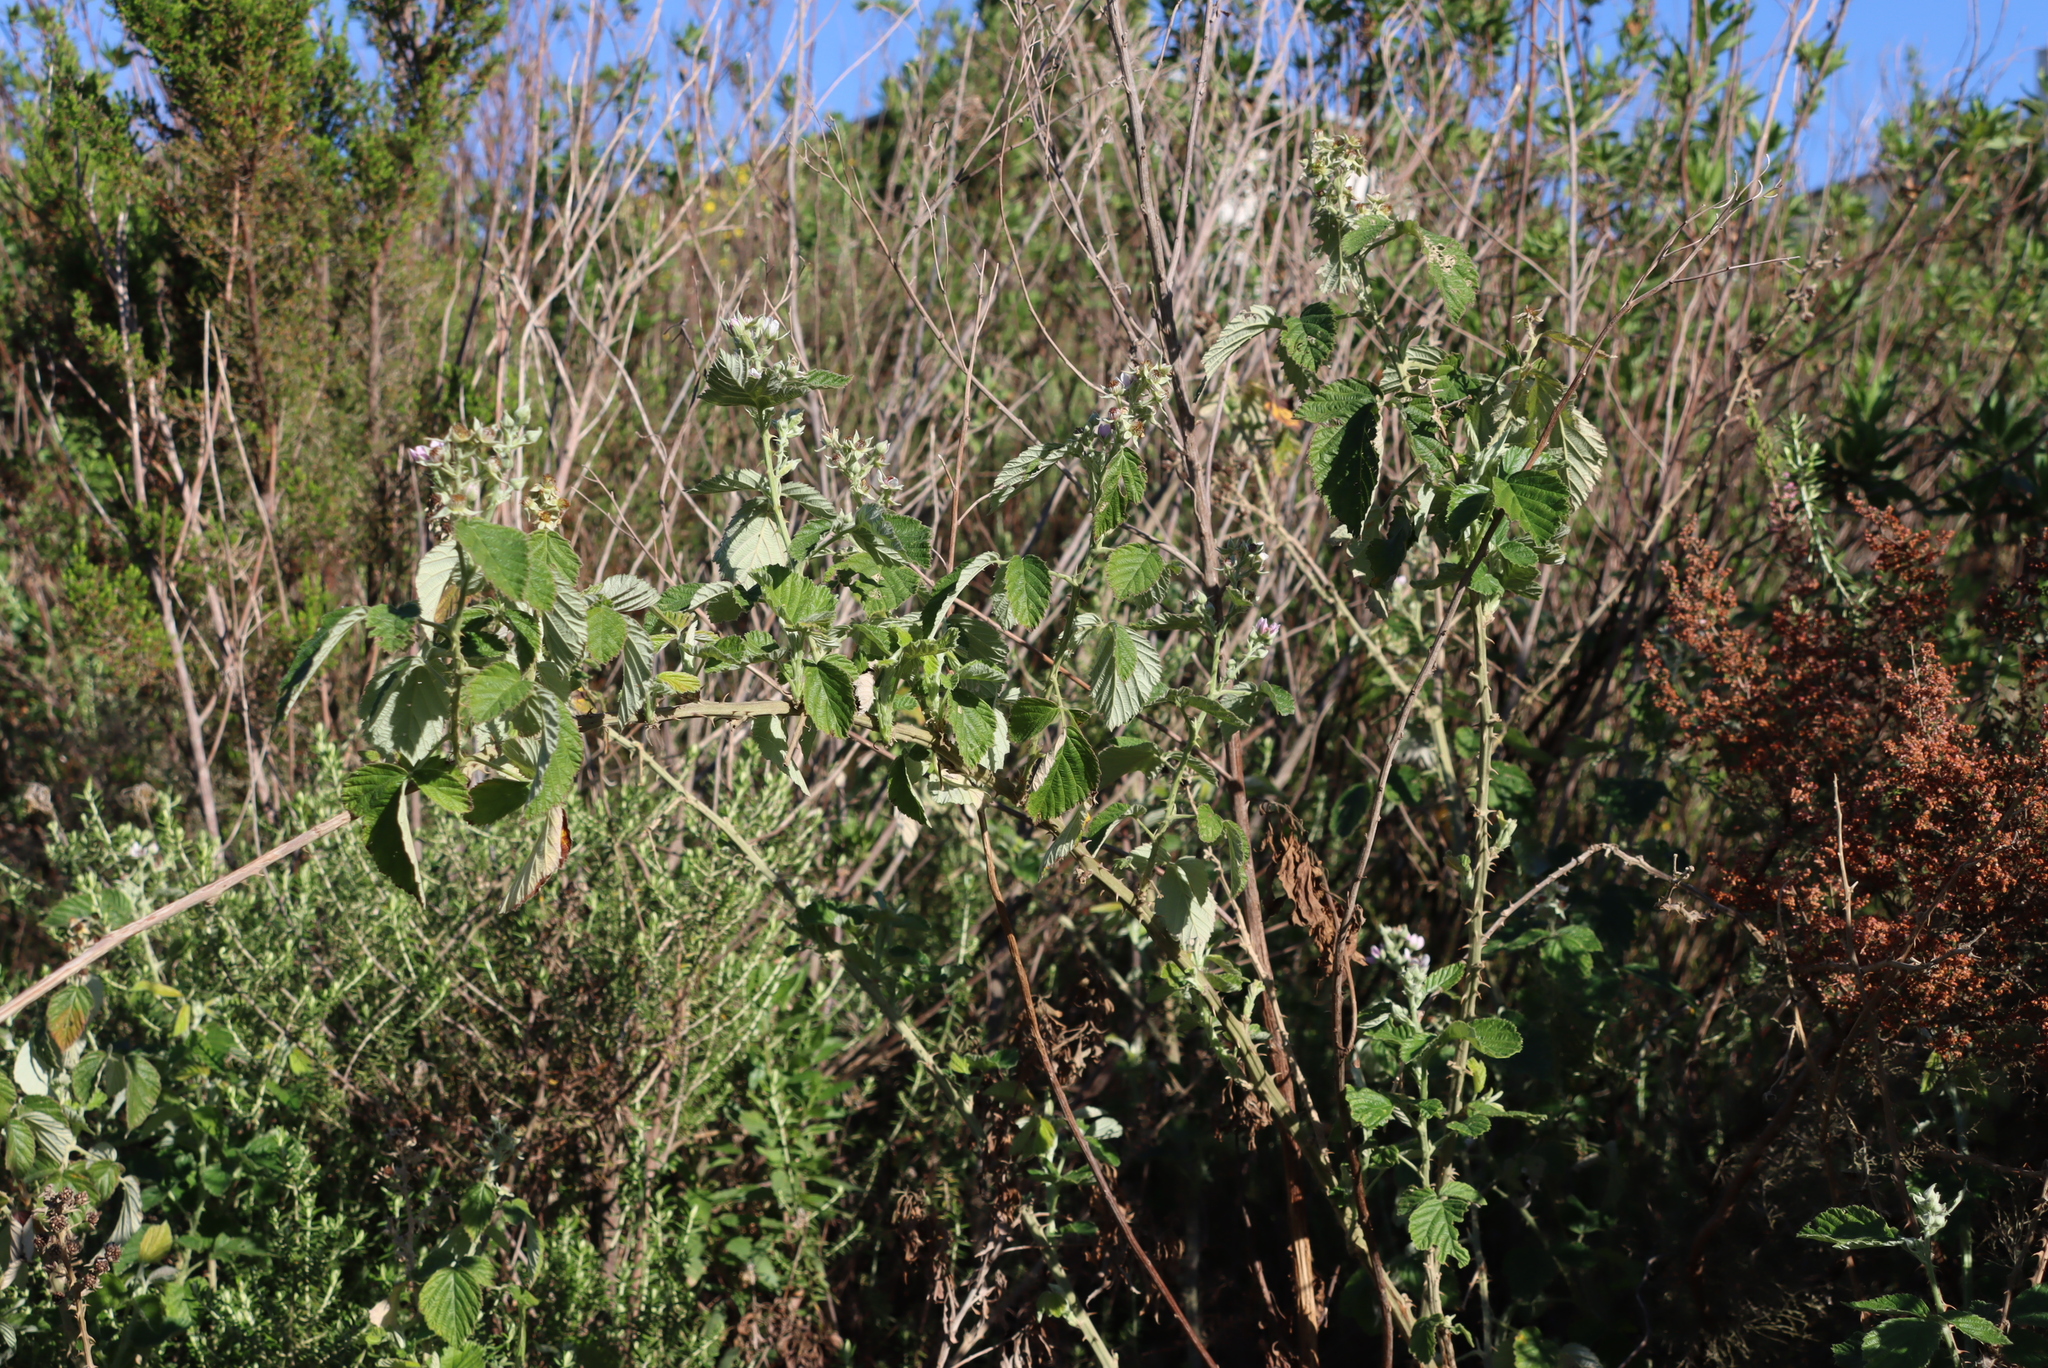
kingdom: Plantae
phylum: Tracheophyta
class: Magnoliopsida
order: Rosales
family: Rosaceae
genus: Rubus
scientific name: Rubus rigidus
